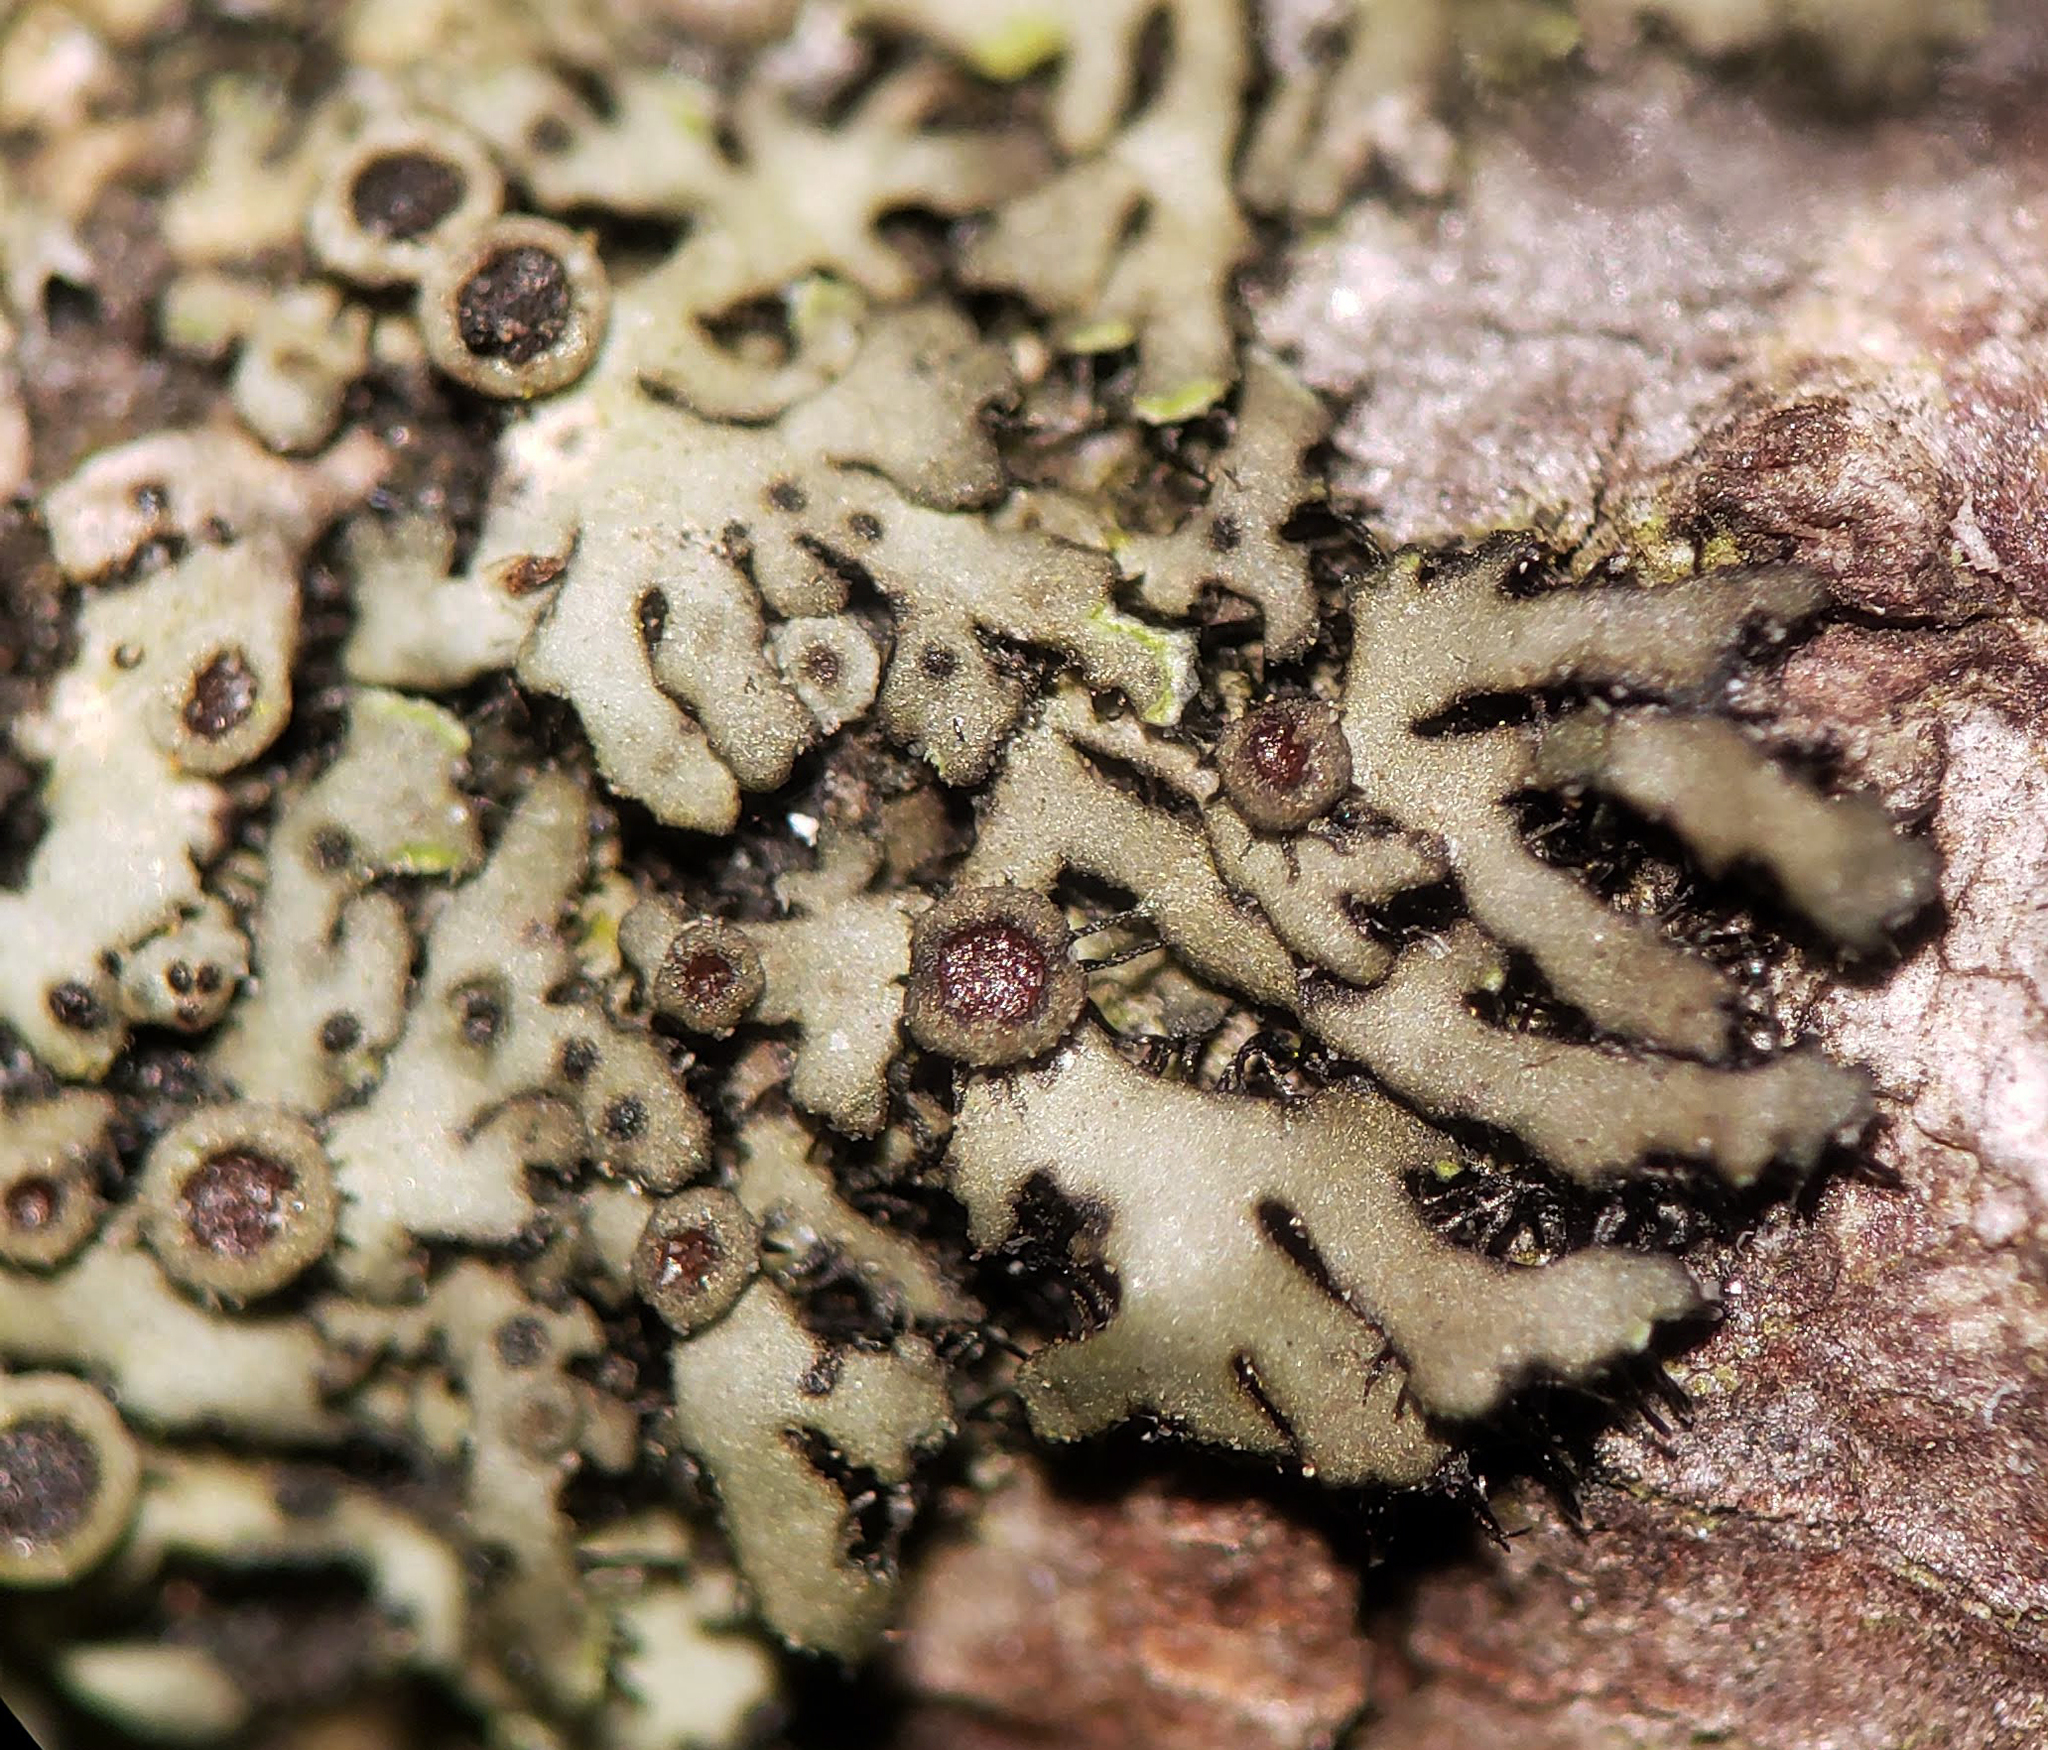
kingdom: Fungi
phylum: Ascomycota
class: Lecanoromycetes
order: Caliciales
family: Physciaceae
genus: Phaeophyscia
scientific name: Phaeophyscia ciliata
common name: Smooth shadow lichen
